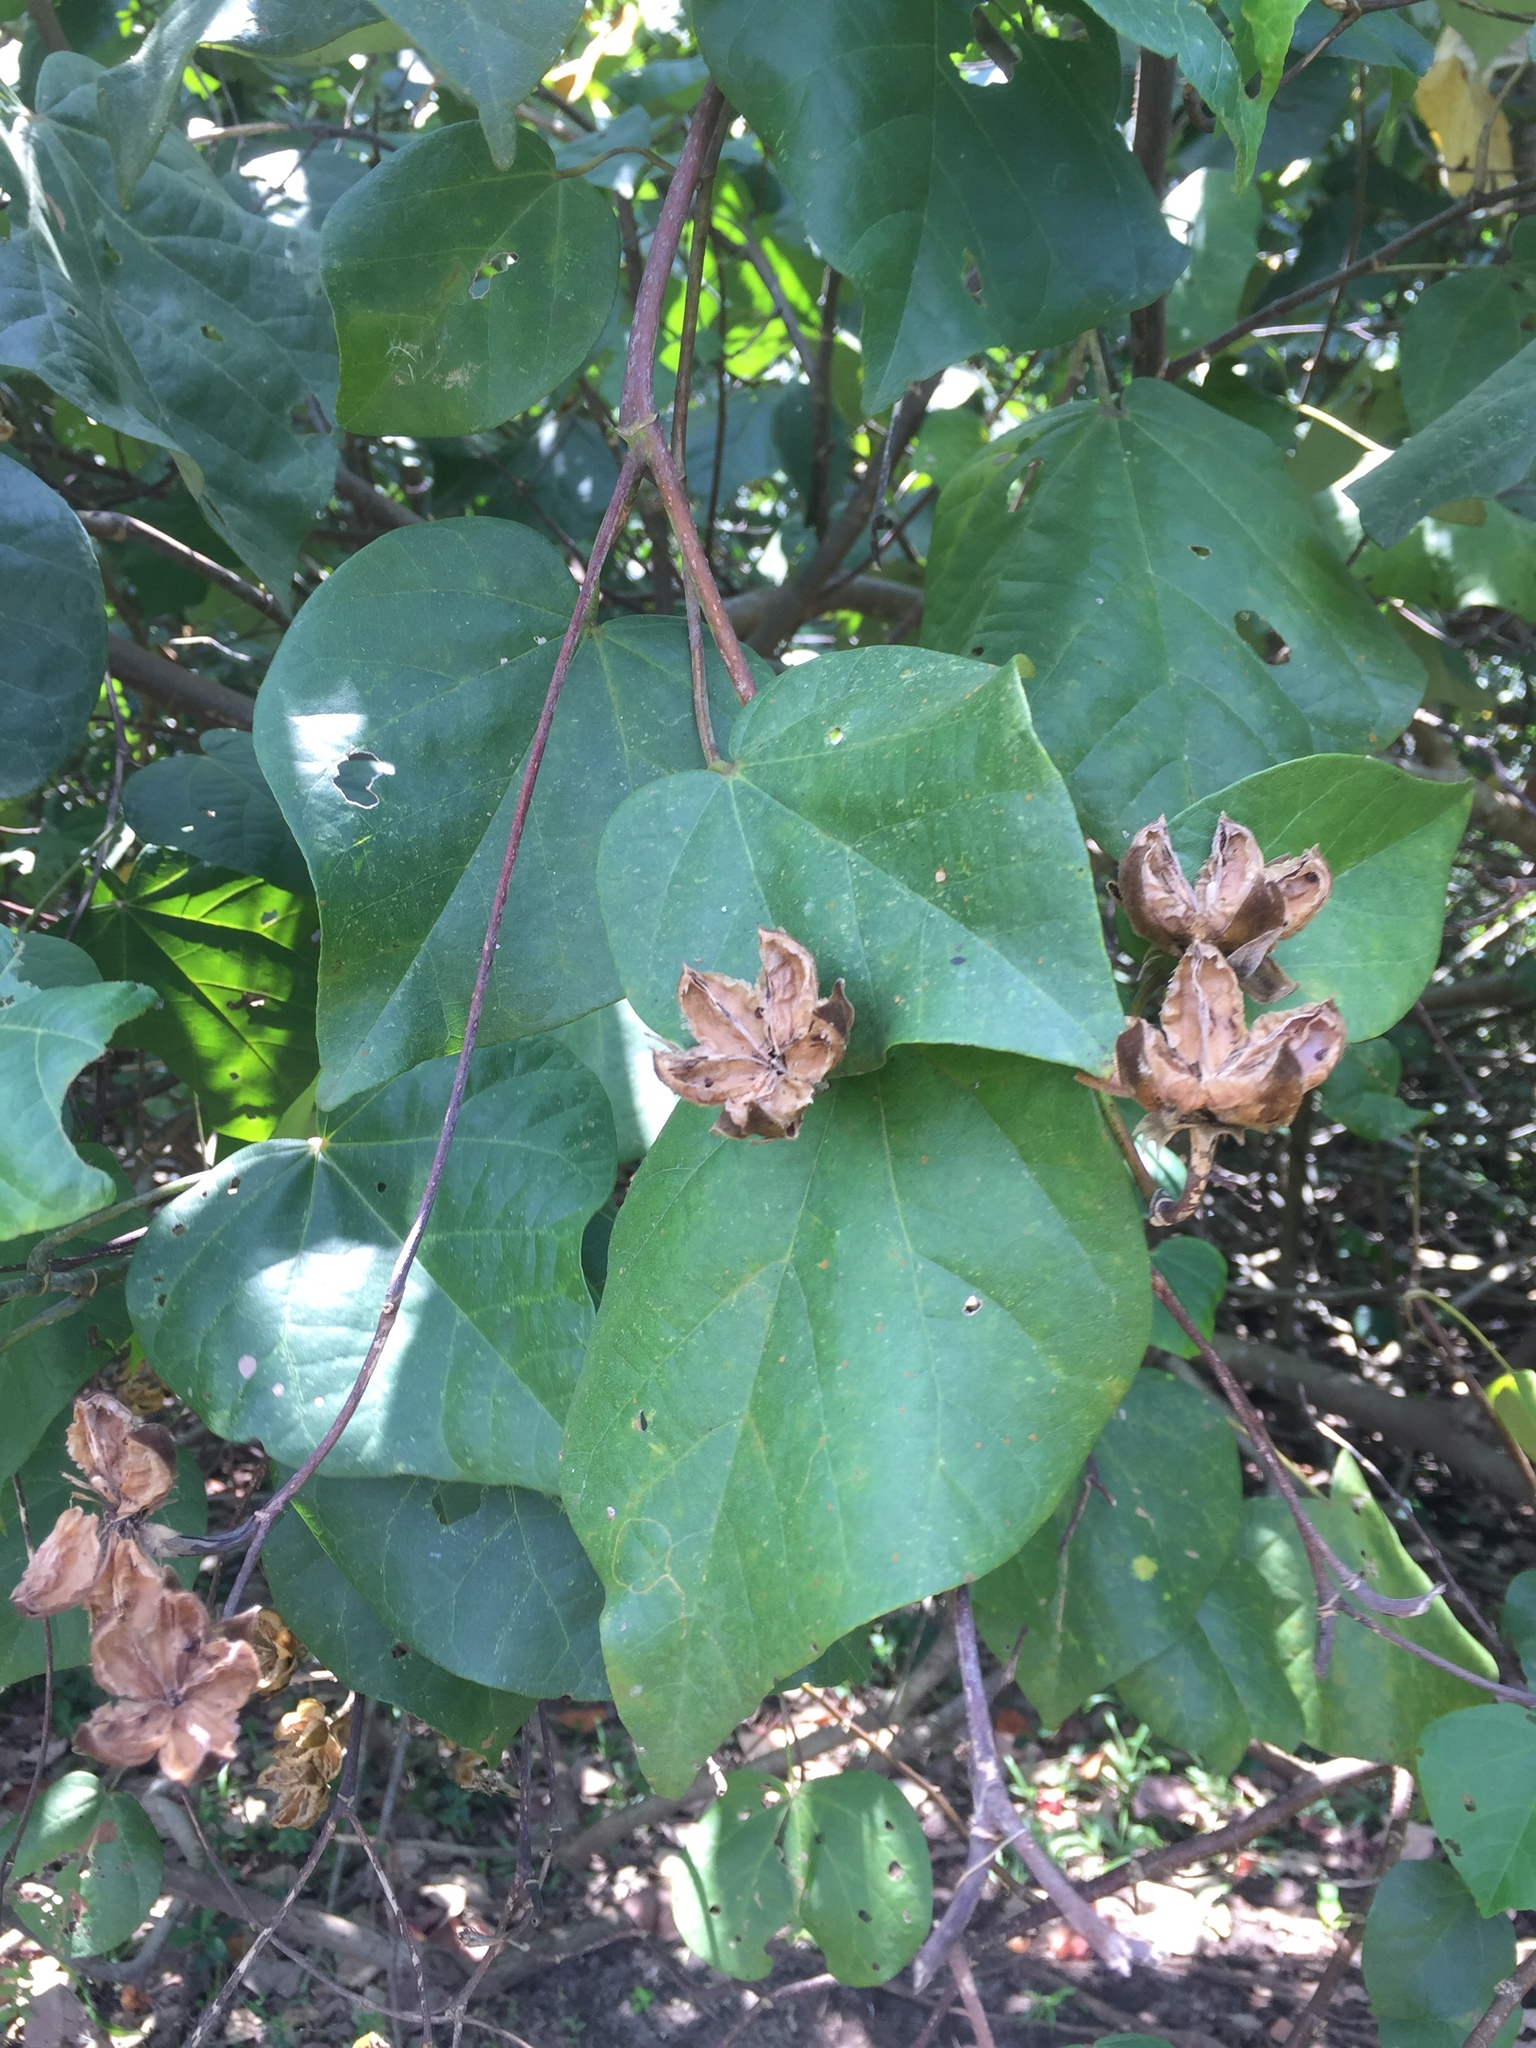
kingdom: Plantae
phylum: Tracheophyta
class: Magnoliopsida
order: Malvales
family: Malvaceae
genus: Talipariti
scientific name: Talipariti tiliaceum
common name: Sea hibiscus
